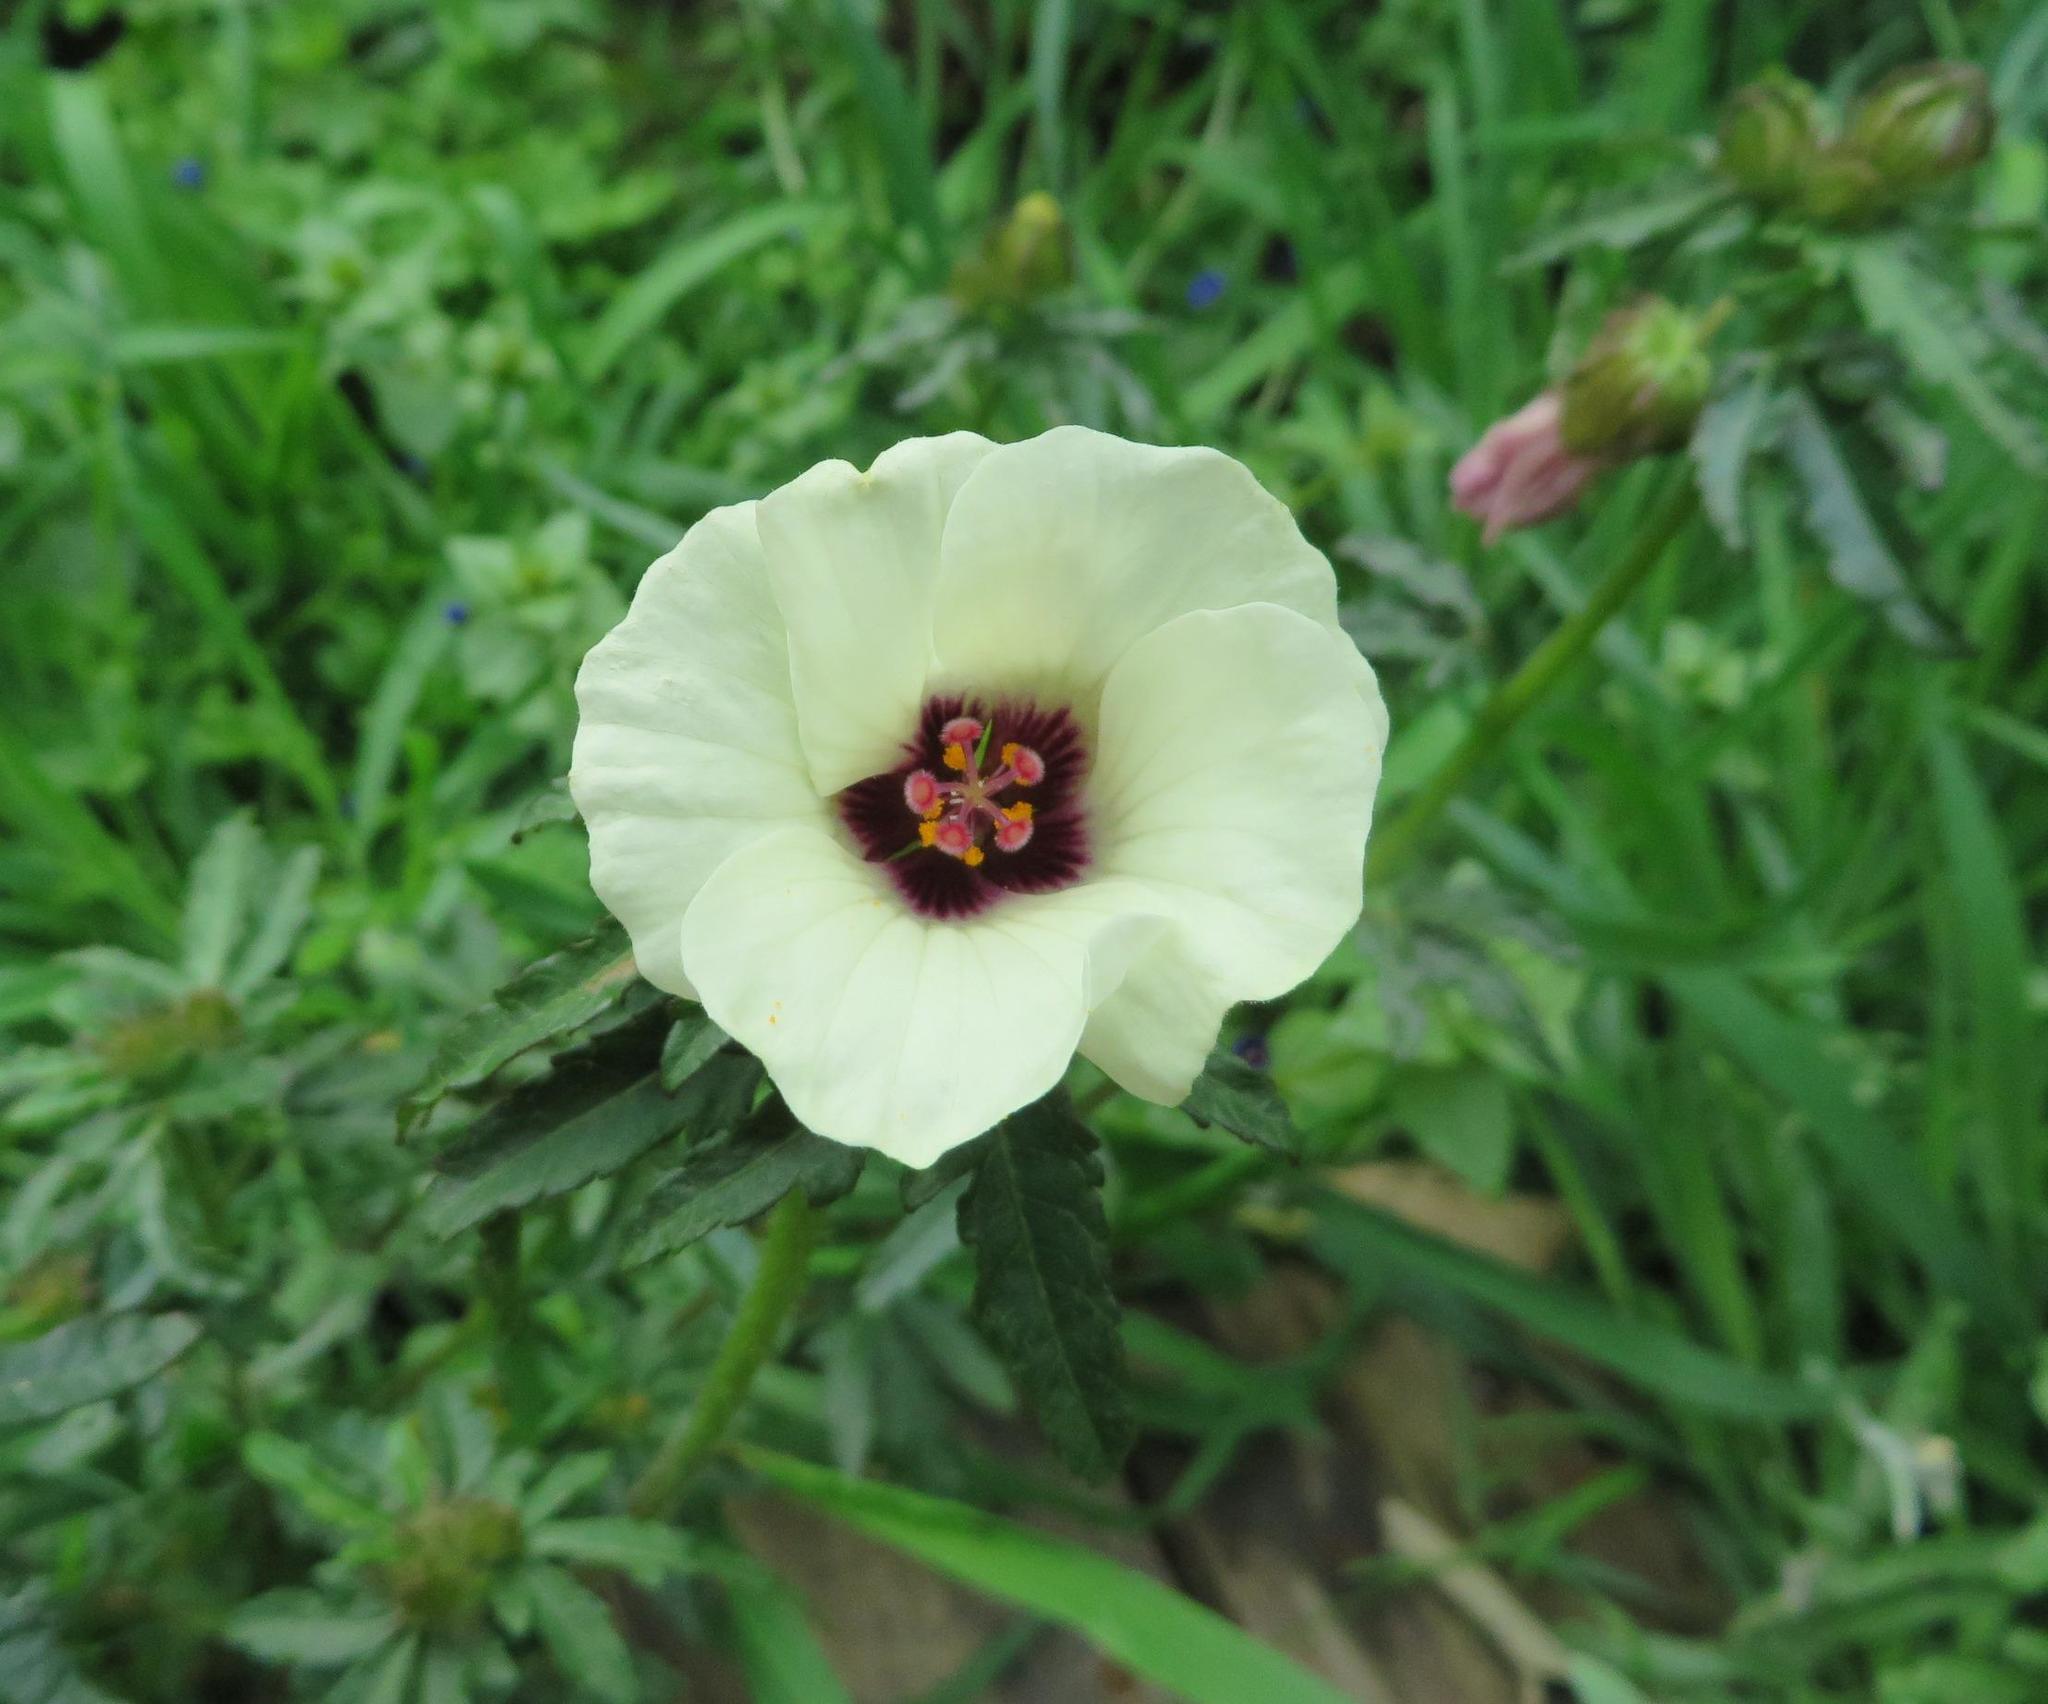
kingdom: Plantae
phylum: Tracheophyta
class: Magnoliopsida
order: Malvales
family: Malvaceae
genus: Hibiscus
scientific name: Hibiscus trionum
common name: Bladder ketmia
